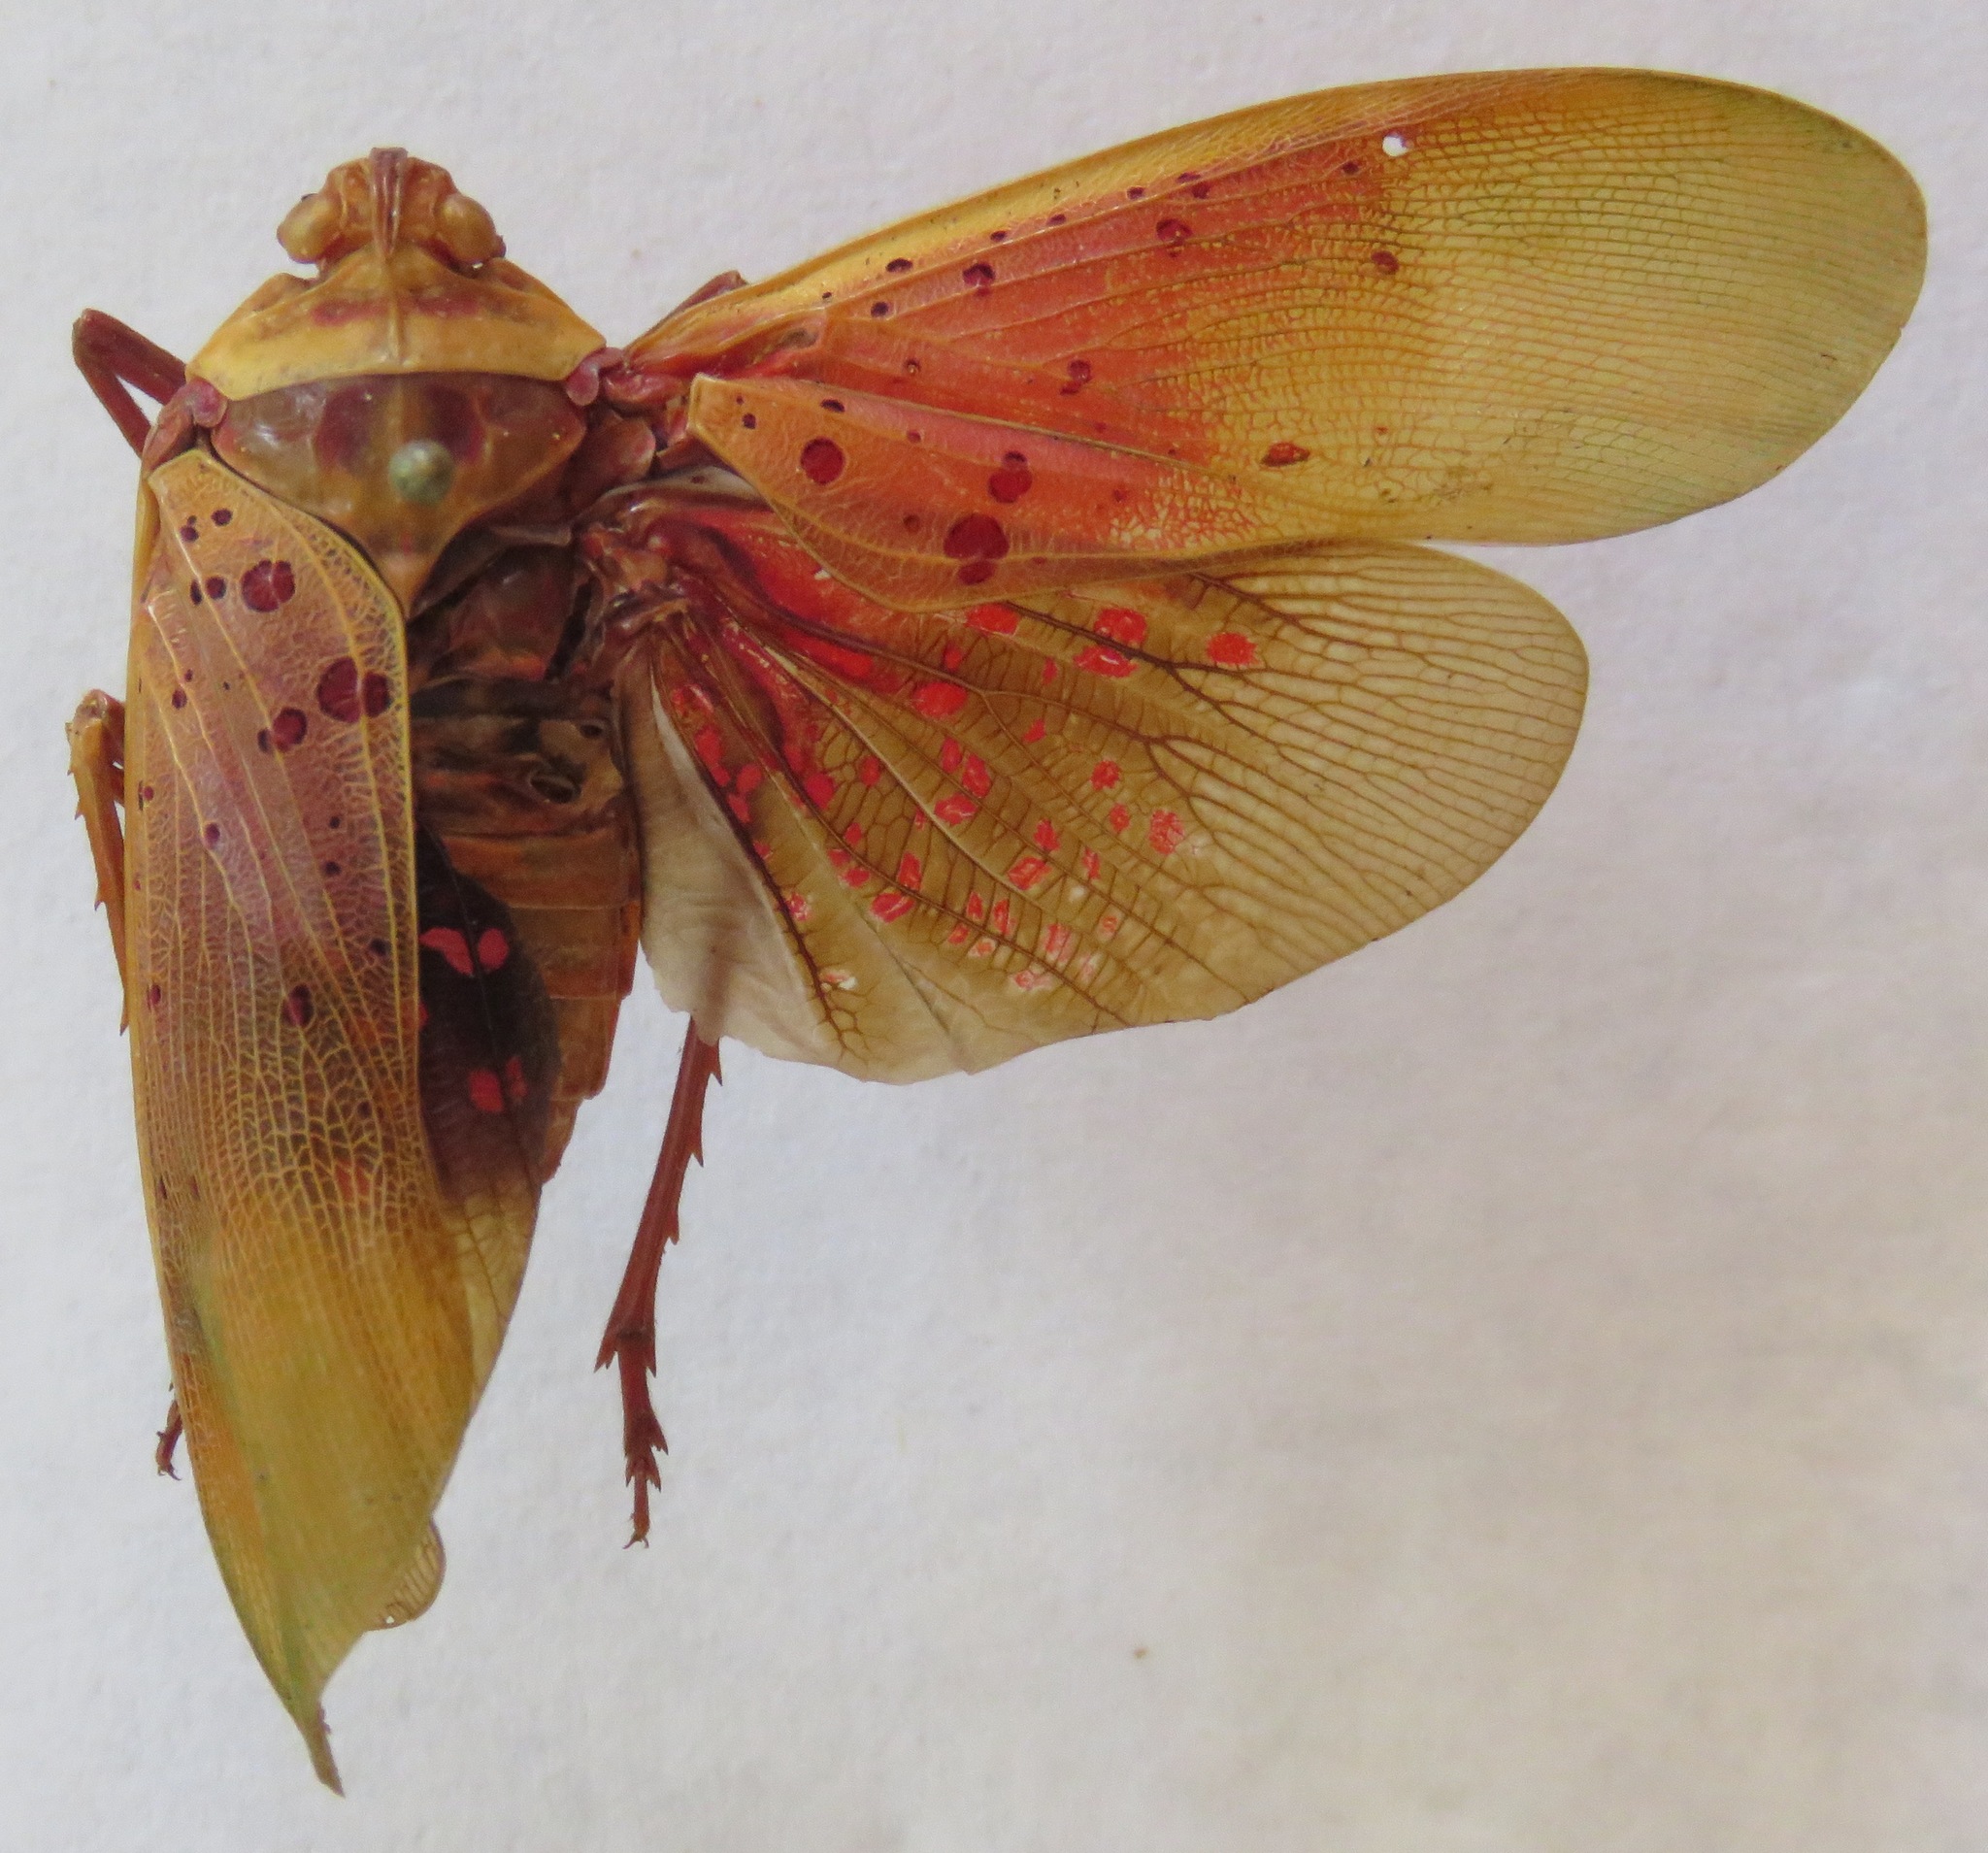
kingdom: Animalia
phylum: Arthropoda
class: Insecta
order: Hemiptera
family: Fulgoridae
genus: Copidocephala
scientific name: Copidocephala guttata
